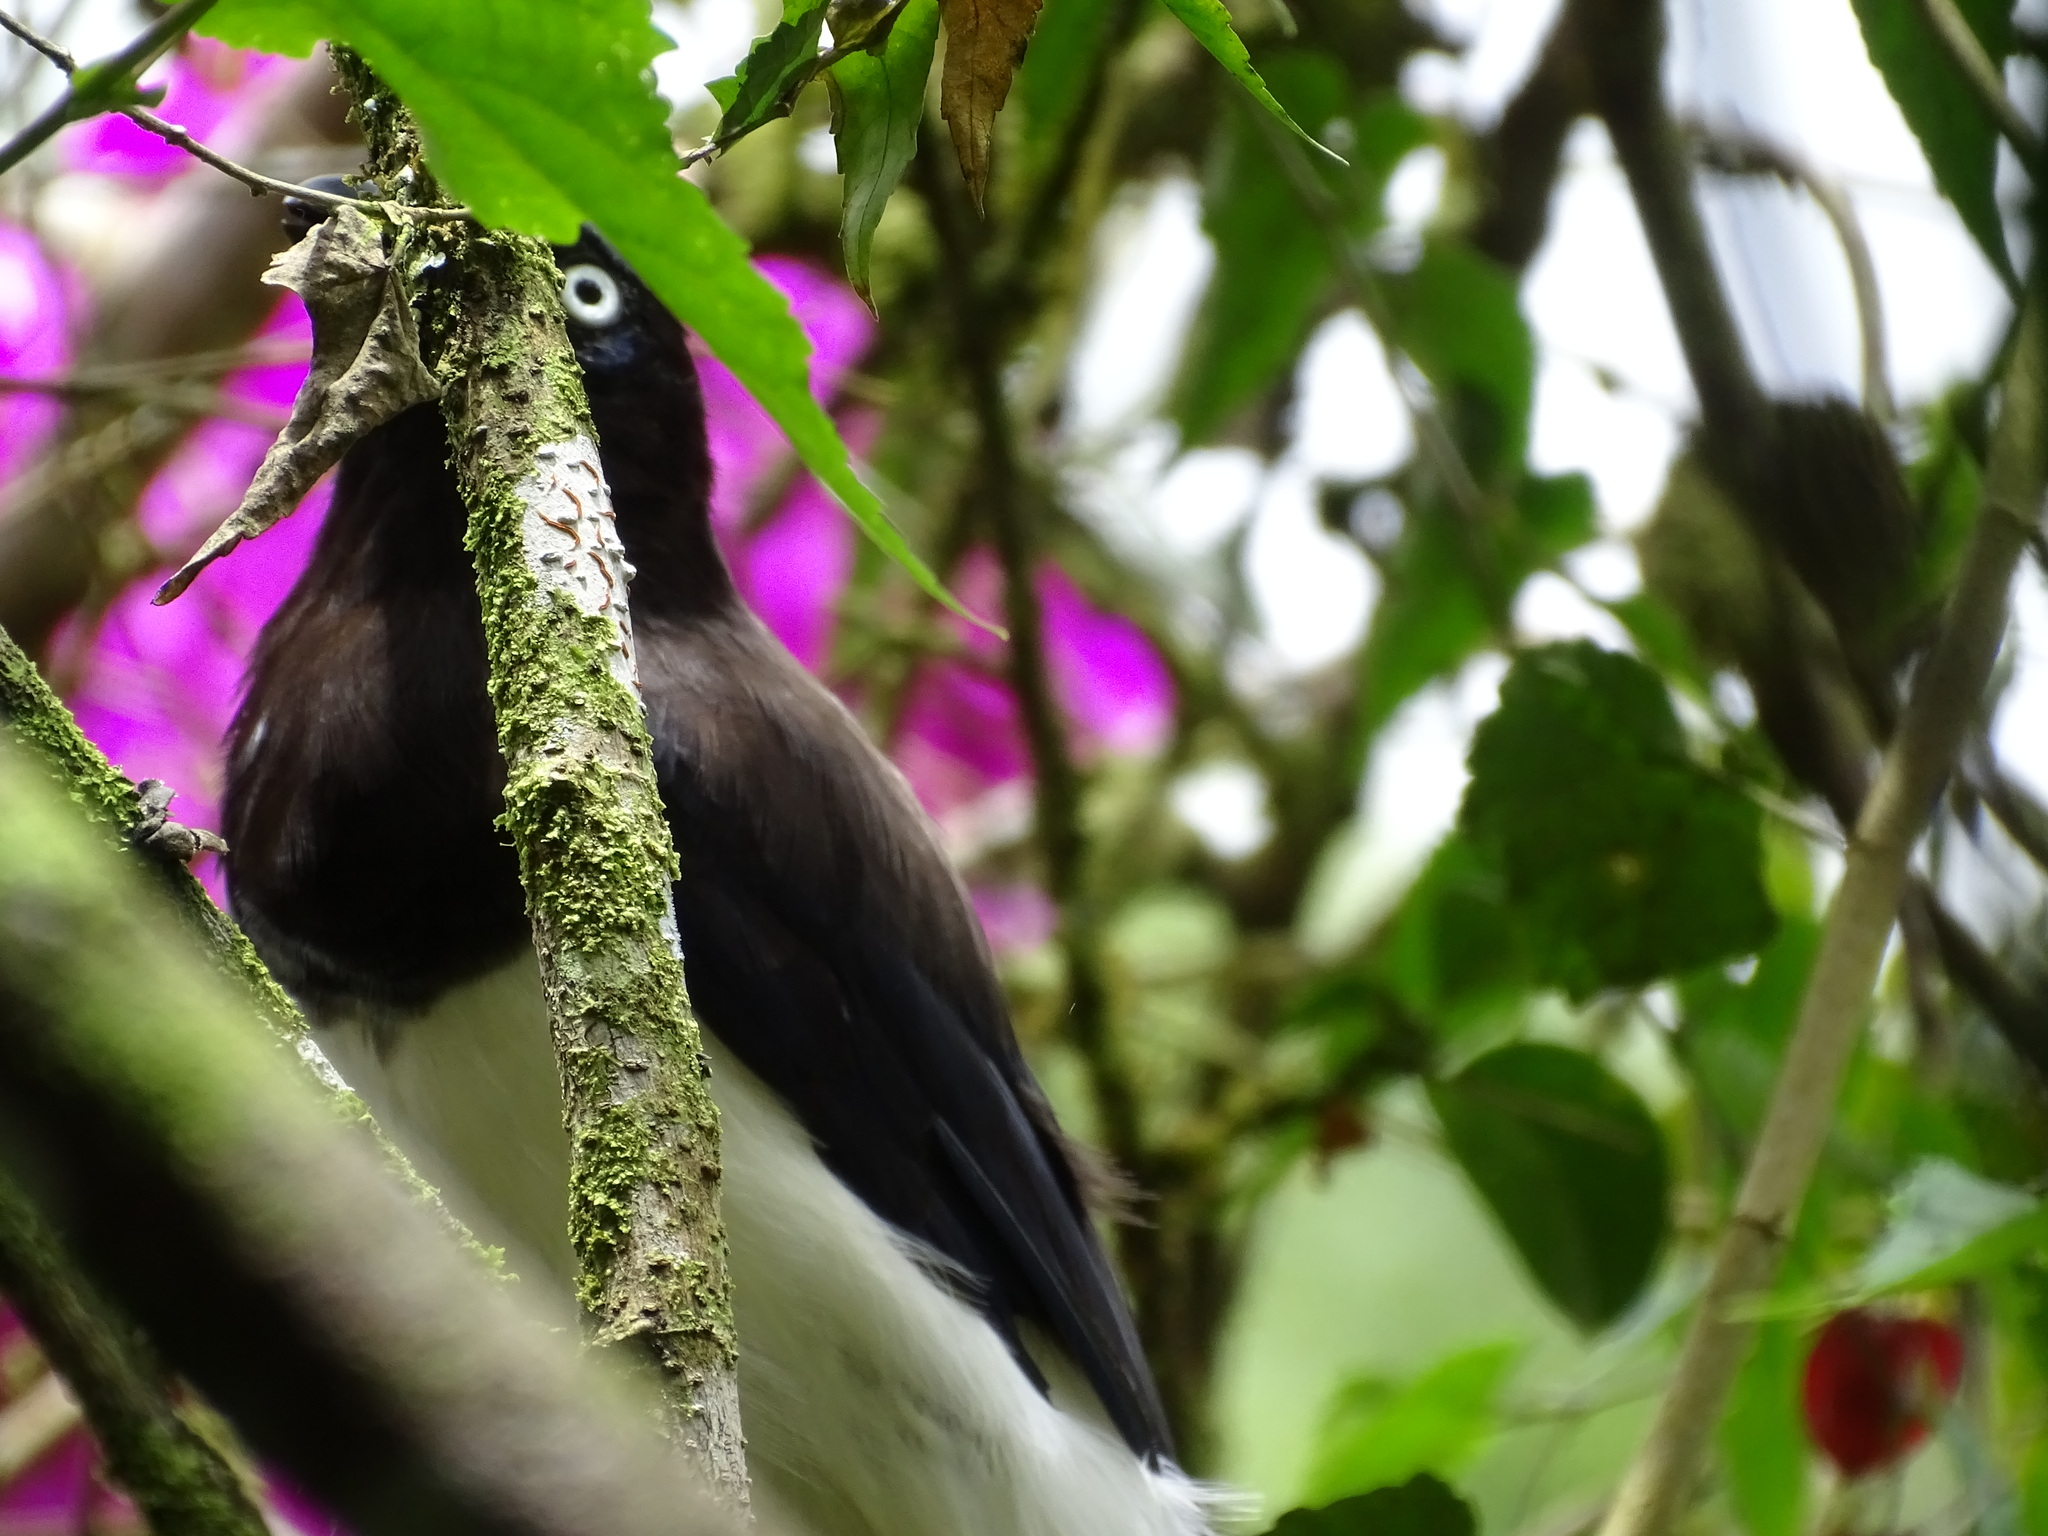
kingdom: Animalia
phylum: Chordata
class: Aves
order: Passeriformes
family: Corvidae
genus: Cyanocorax
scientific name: Cyanocorax affinis
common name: Black-chested jay
